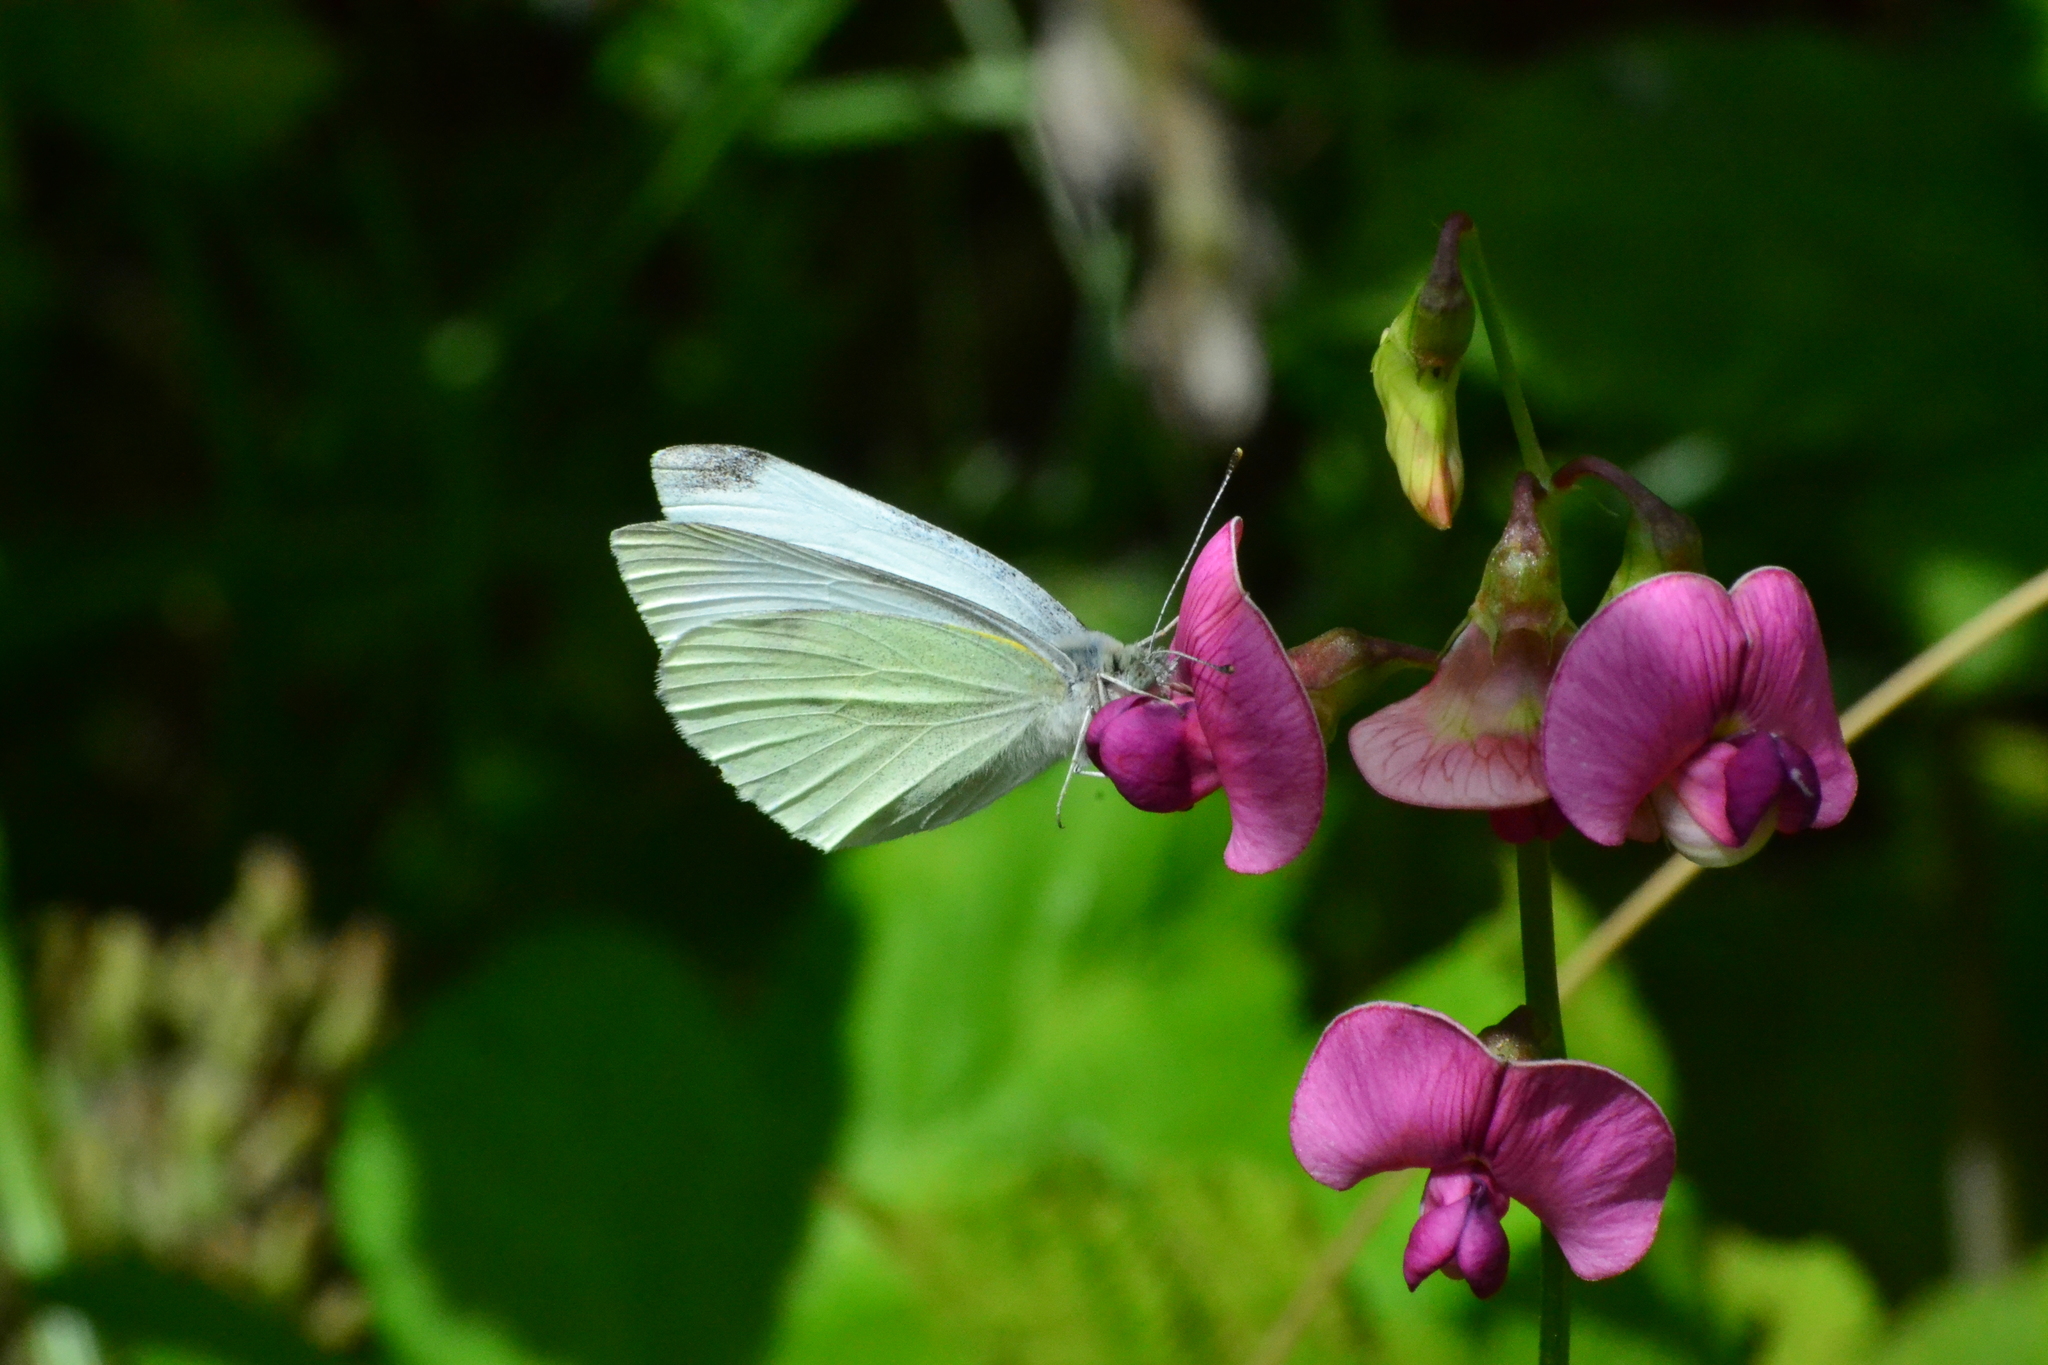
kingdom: Animalia
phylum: Arthropoda
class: Insecta
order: Lepidoptera
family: Pieridae
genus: Pieris
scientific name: Pieris rapae
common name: Small white
